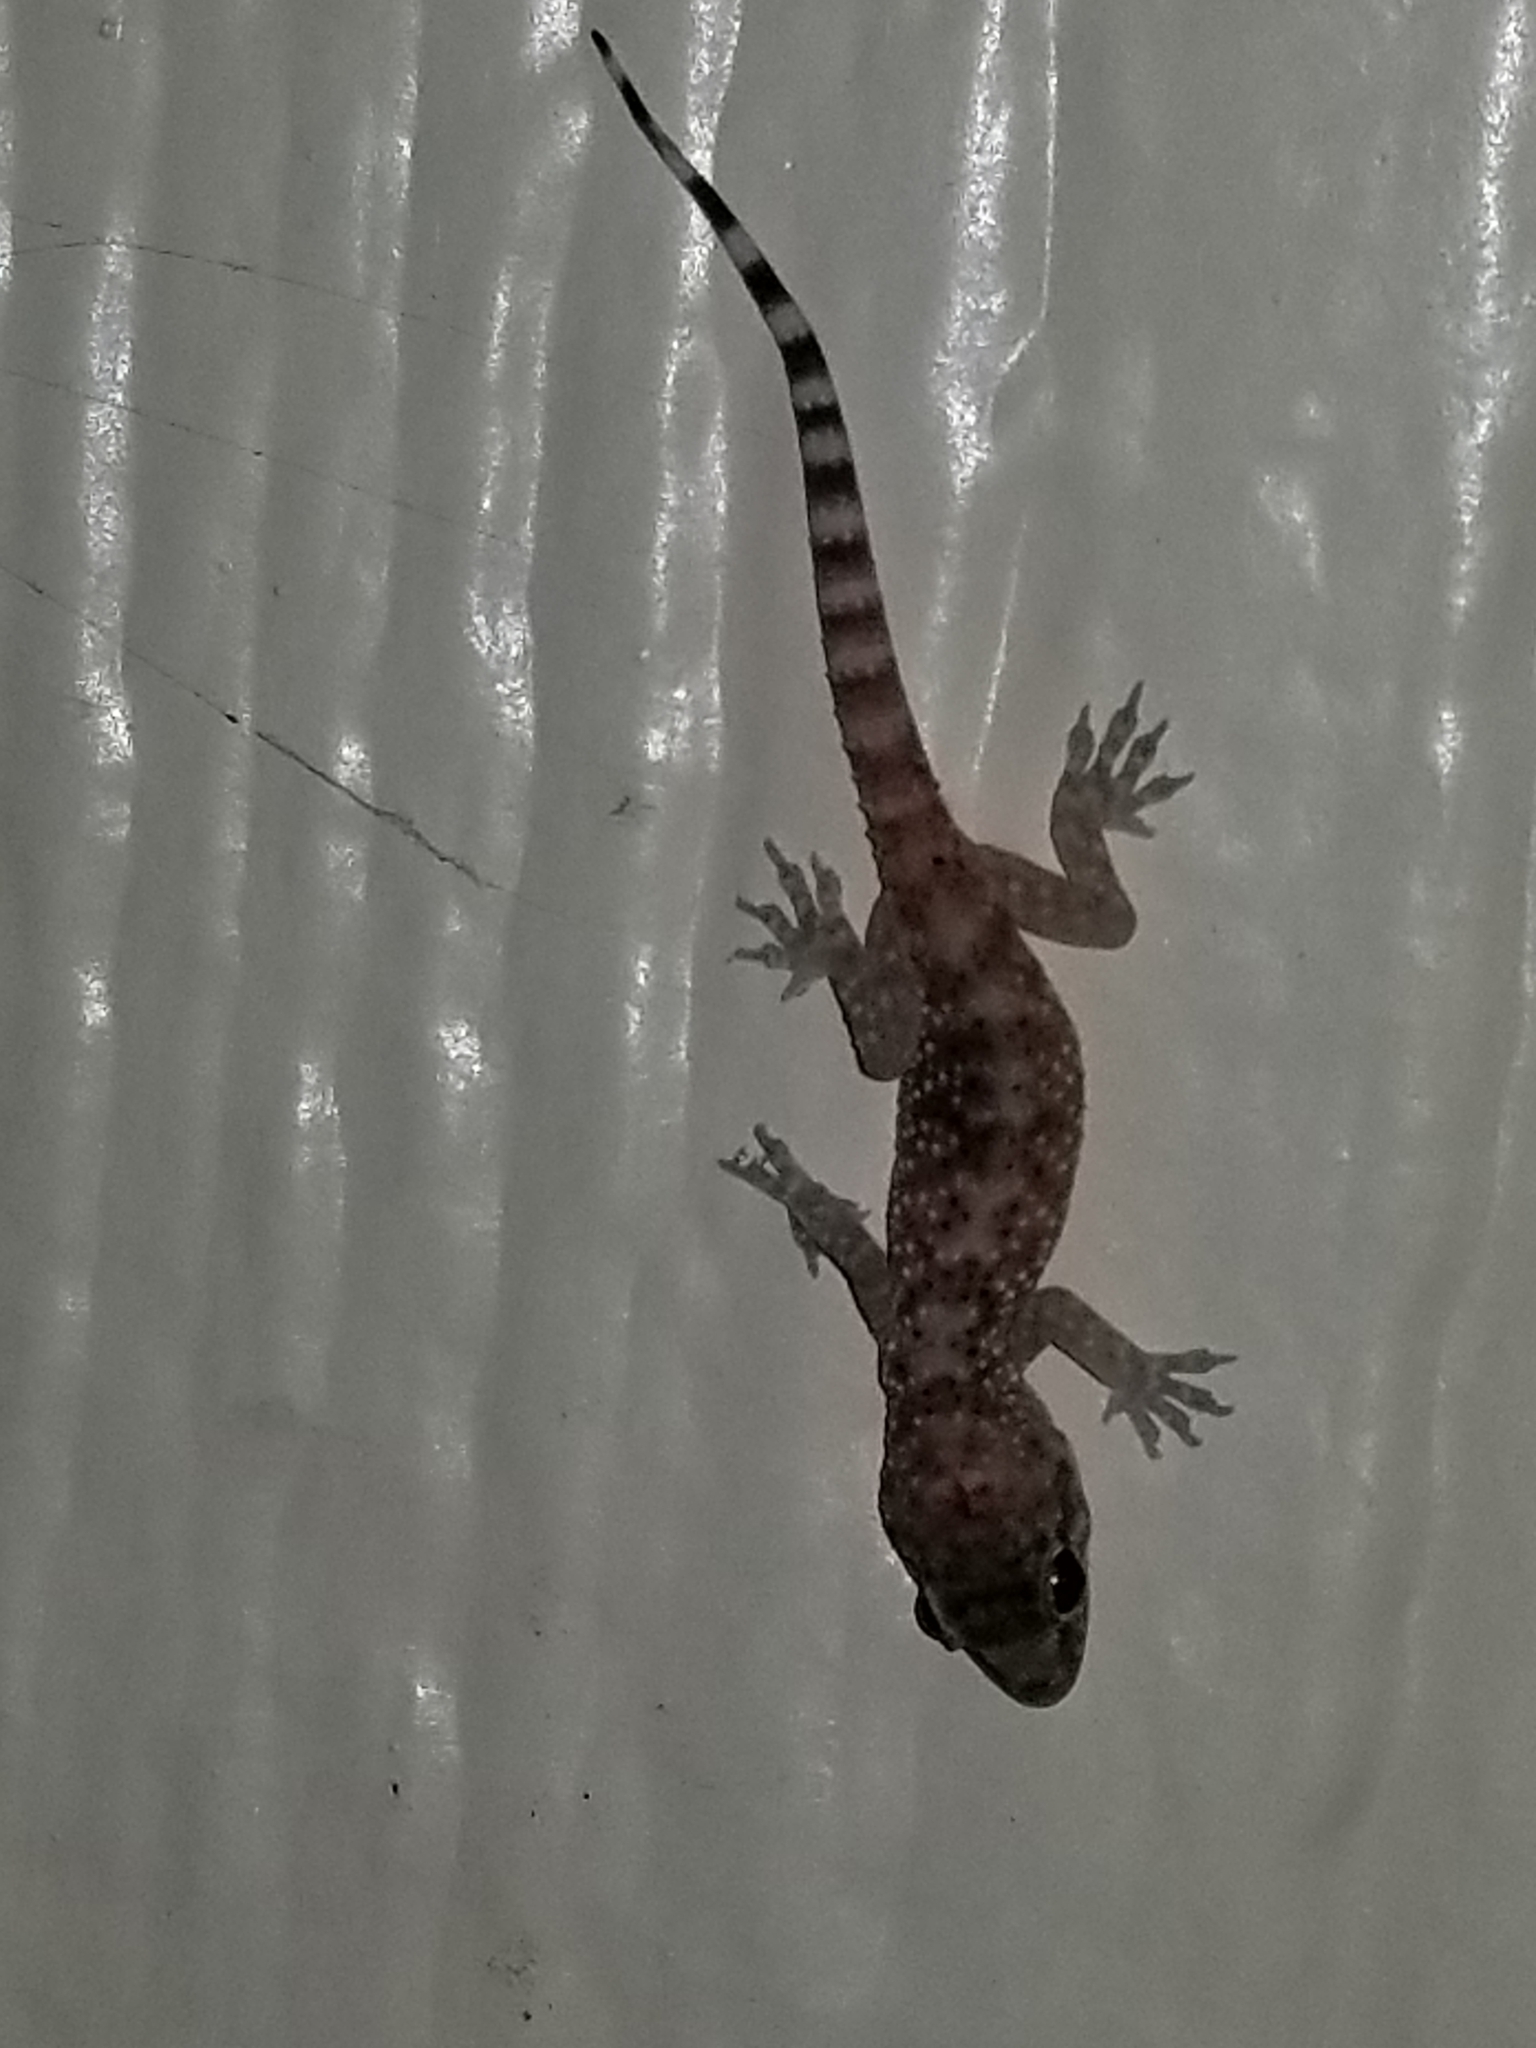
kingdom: Animalia
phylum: Chordata
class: Squamata
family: Gekkonidae
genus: Hemidactylus
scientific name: Hemidactylus turcicus
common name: Turkish gecko
